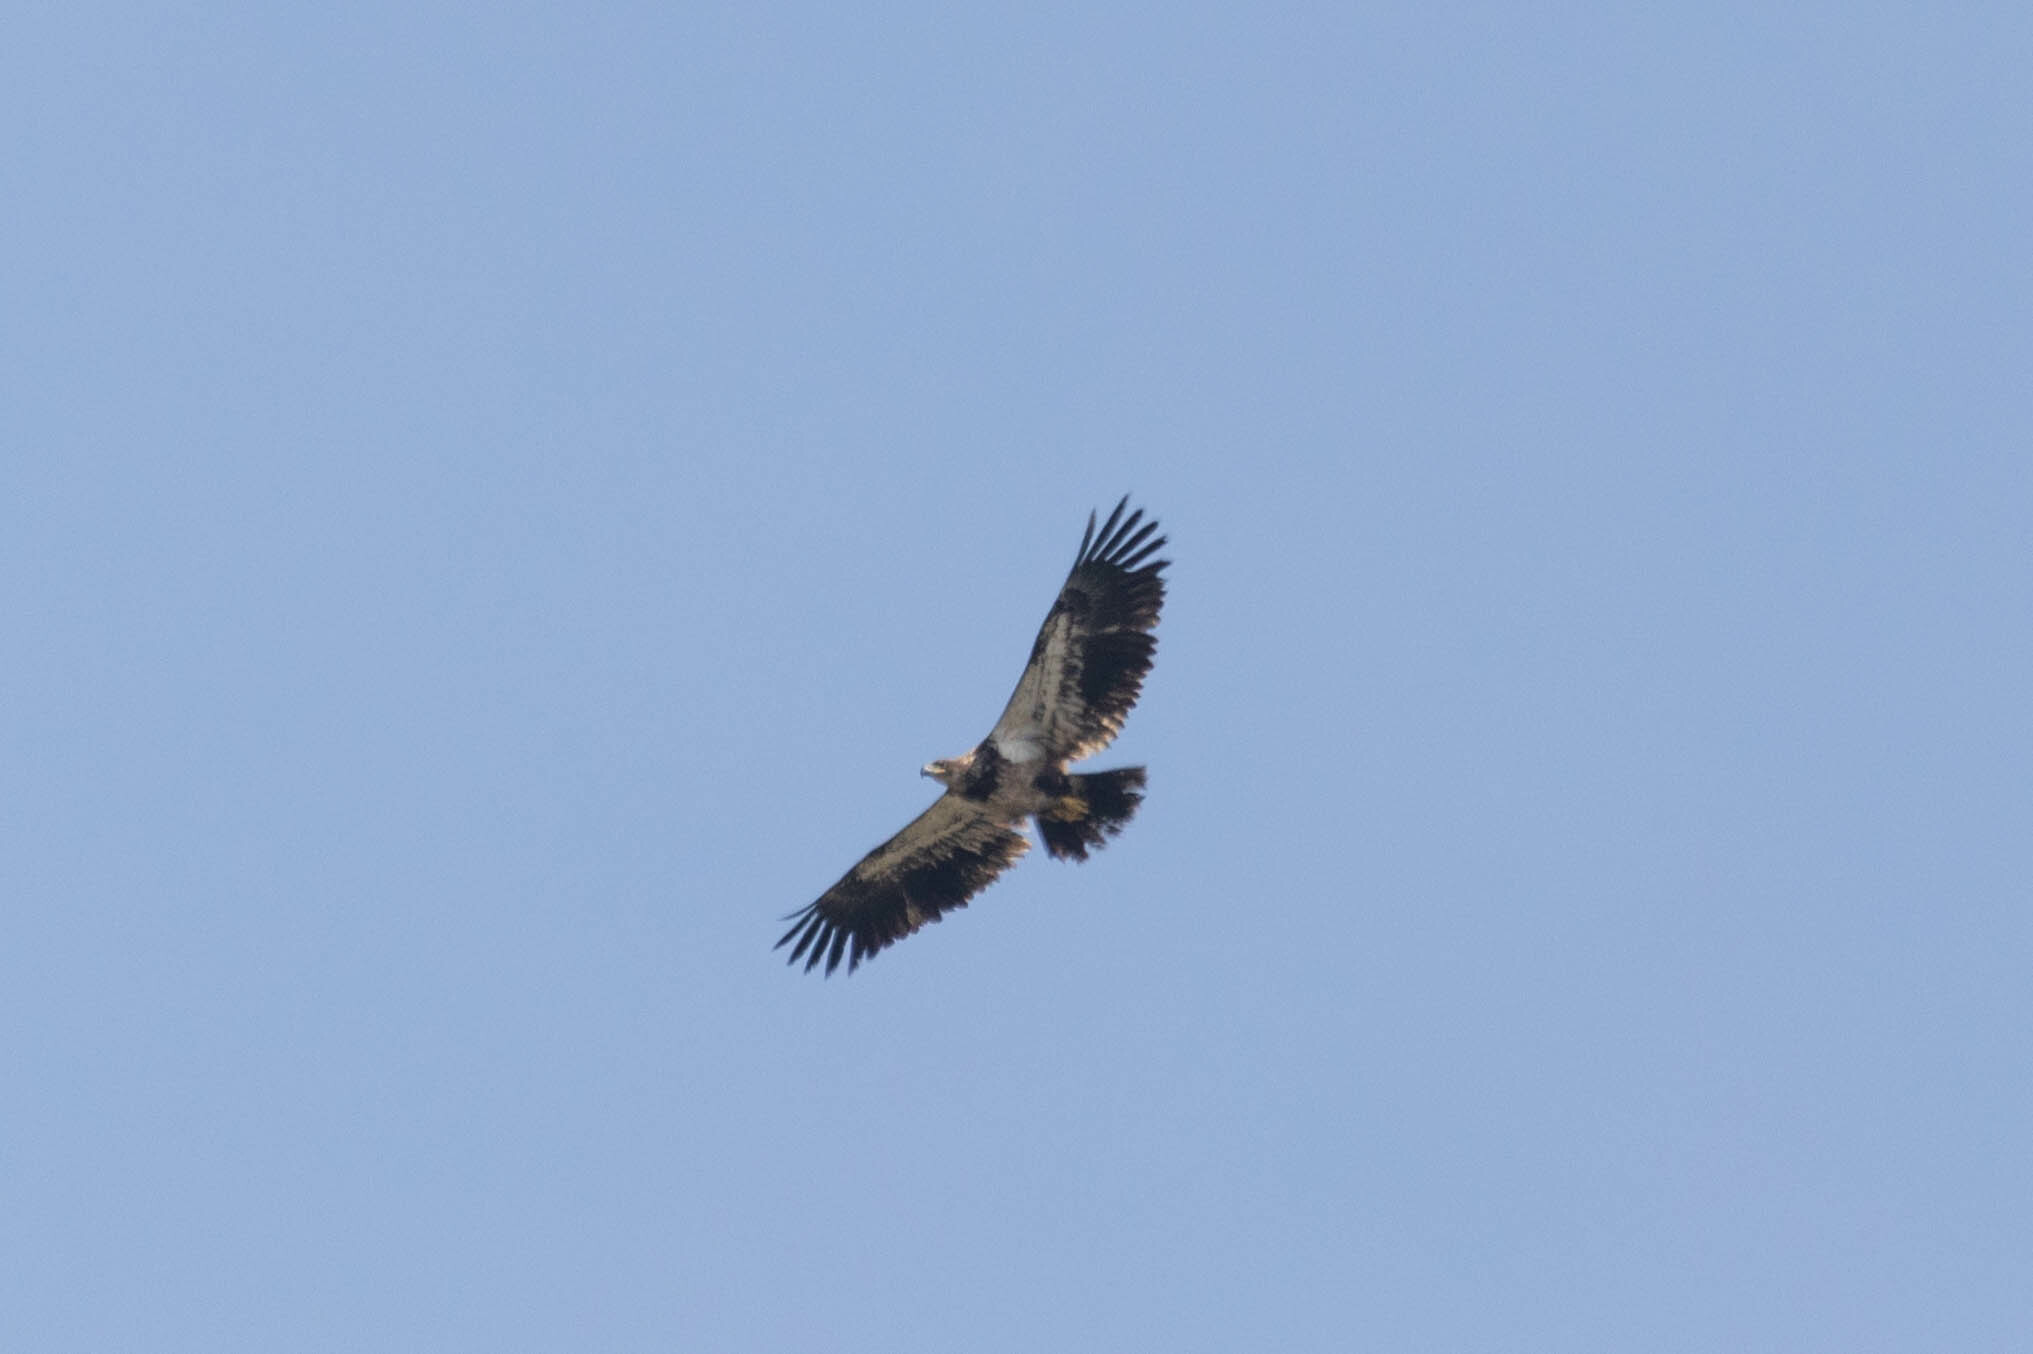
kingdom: Animalia
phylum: Chordata
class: Aves
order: Accipitriformes
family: Accipitridae
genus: Haliaeetus
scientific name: Haliaeetus leucocephalus
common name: Bald eagle
